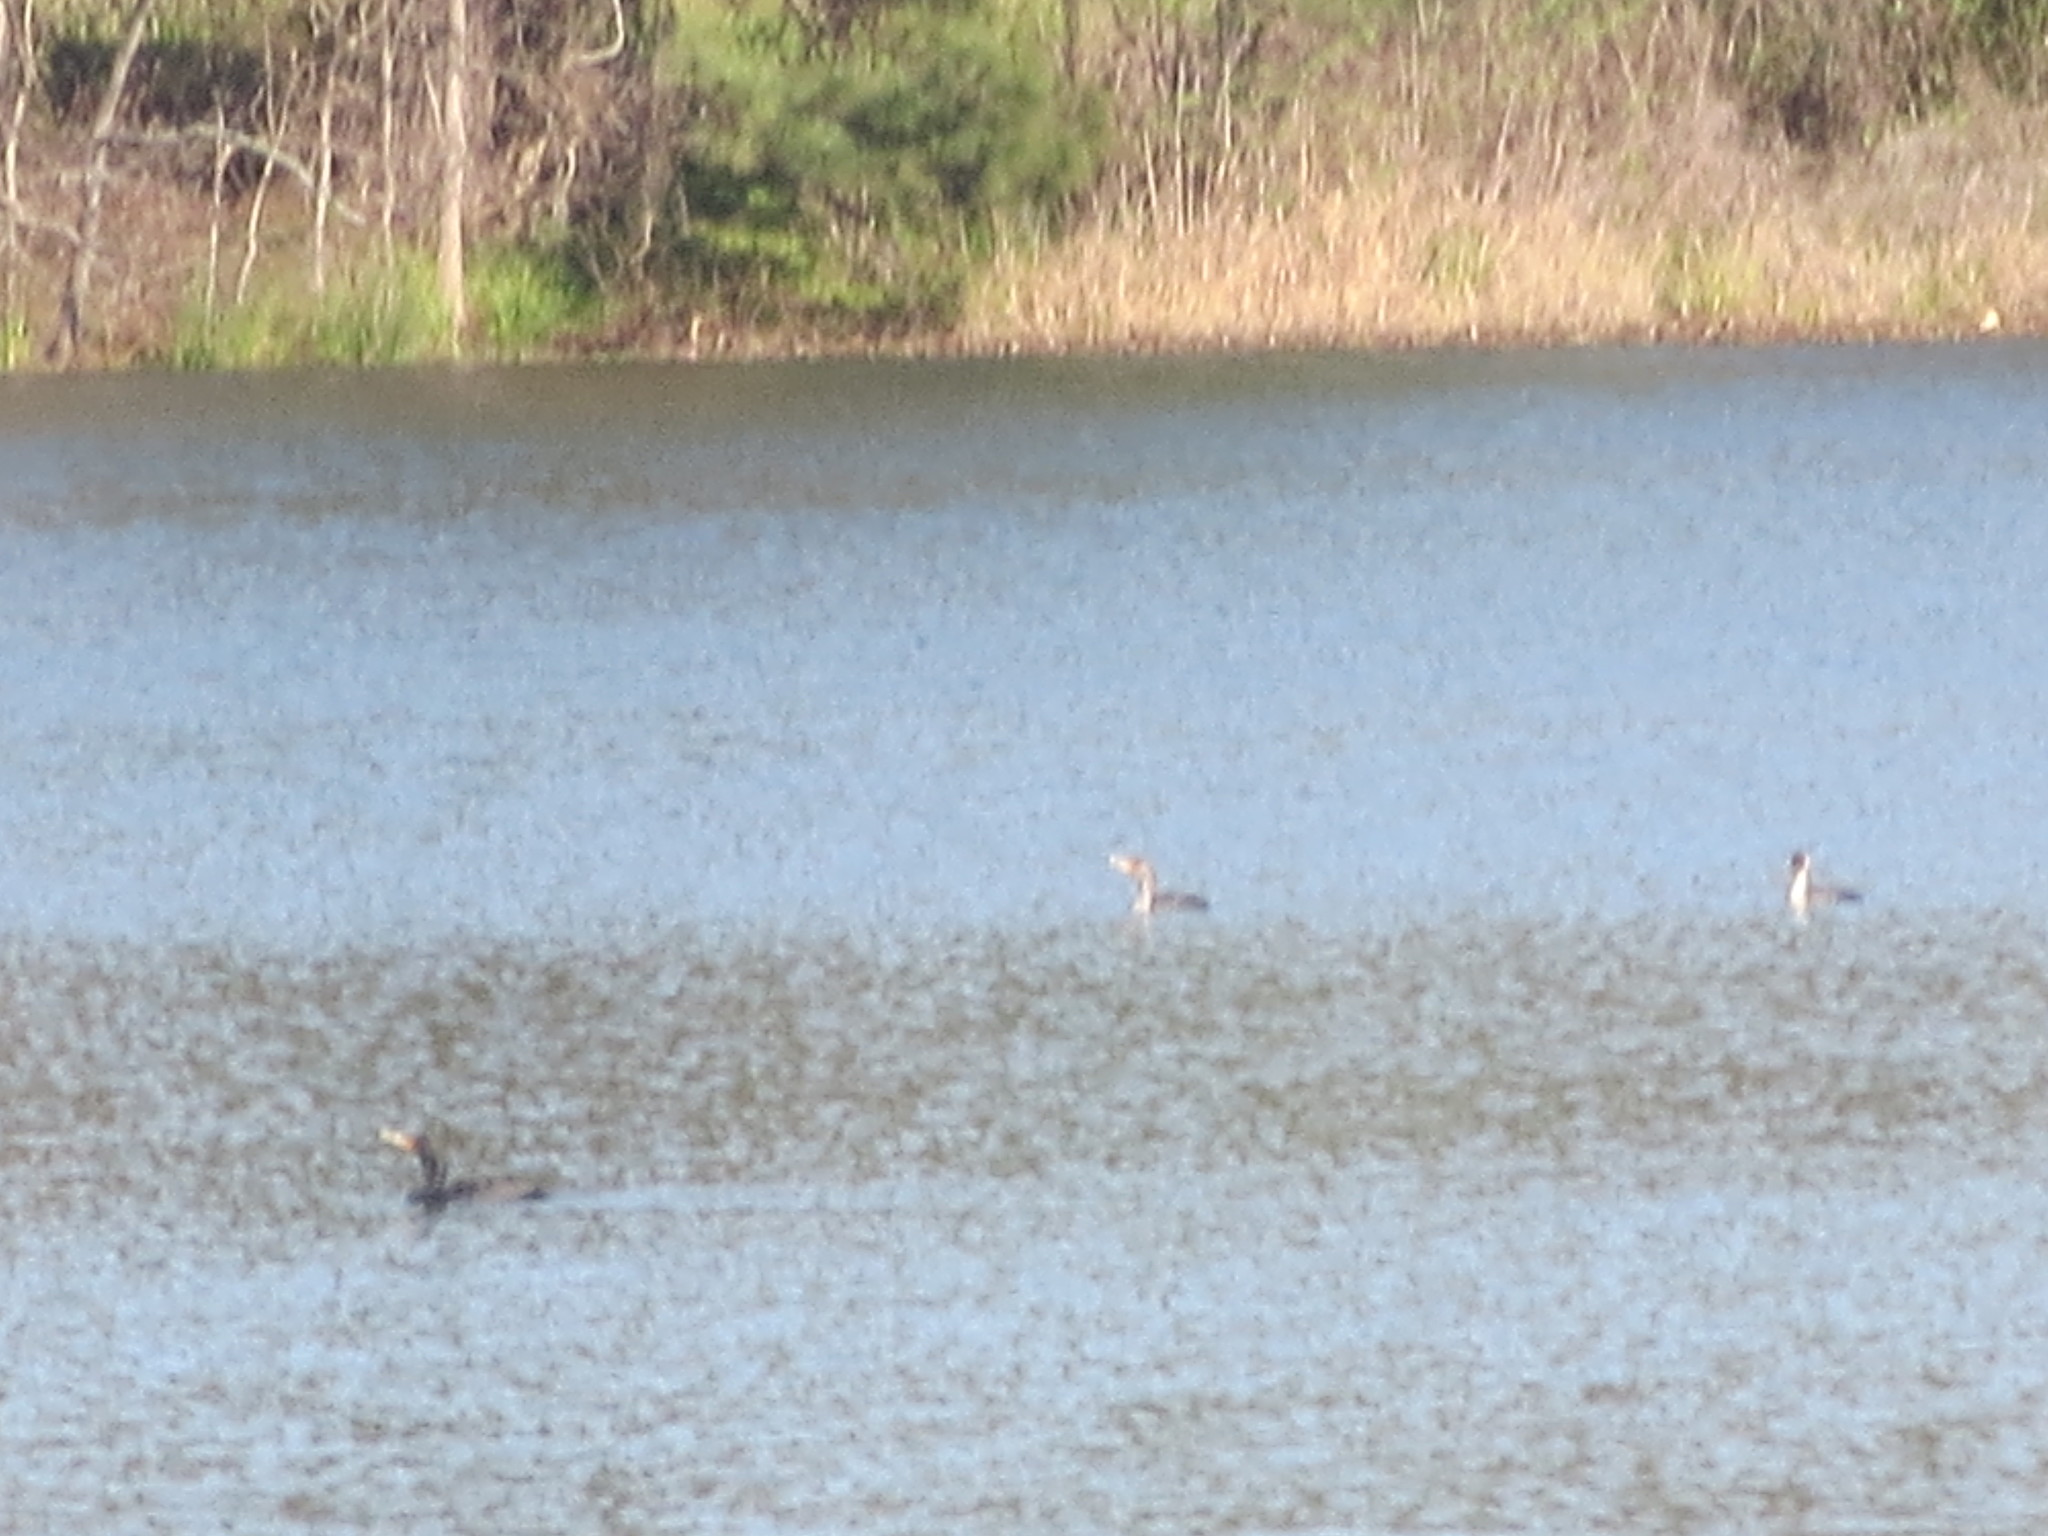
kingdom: Animalia
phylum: Chordata
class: Aves
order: Suliformes
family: Phalacrocoracidae
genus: Phalacrocorax
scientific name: Phalacrocorax auritus
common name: Double-crested cormorant
